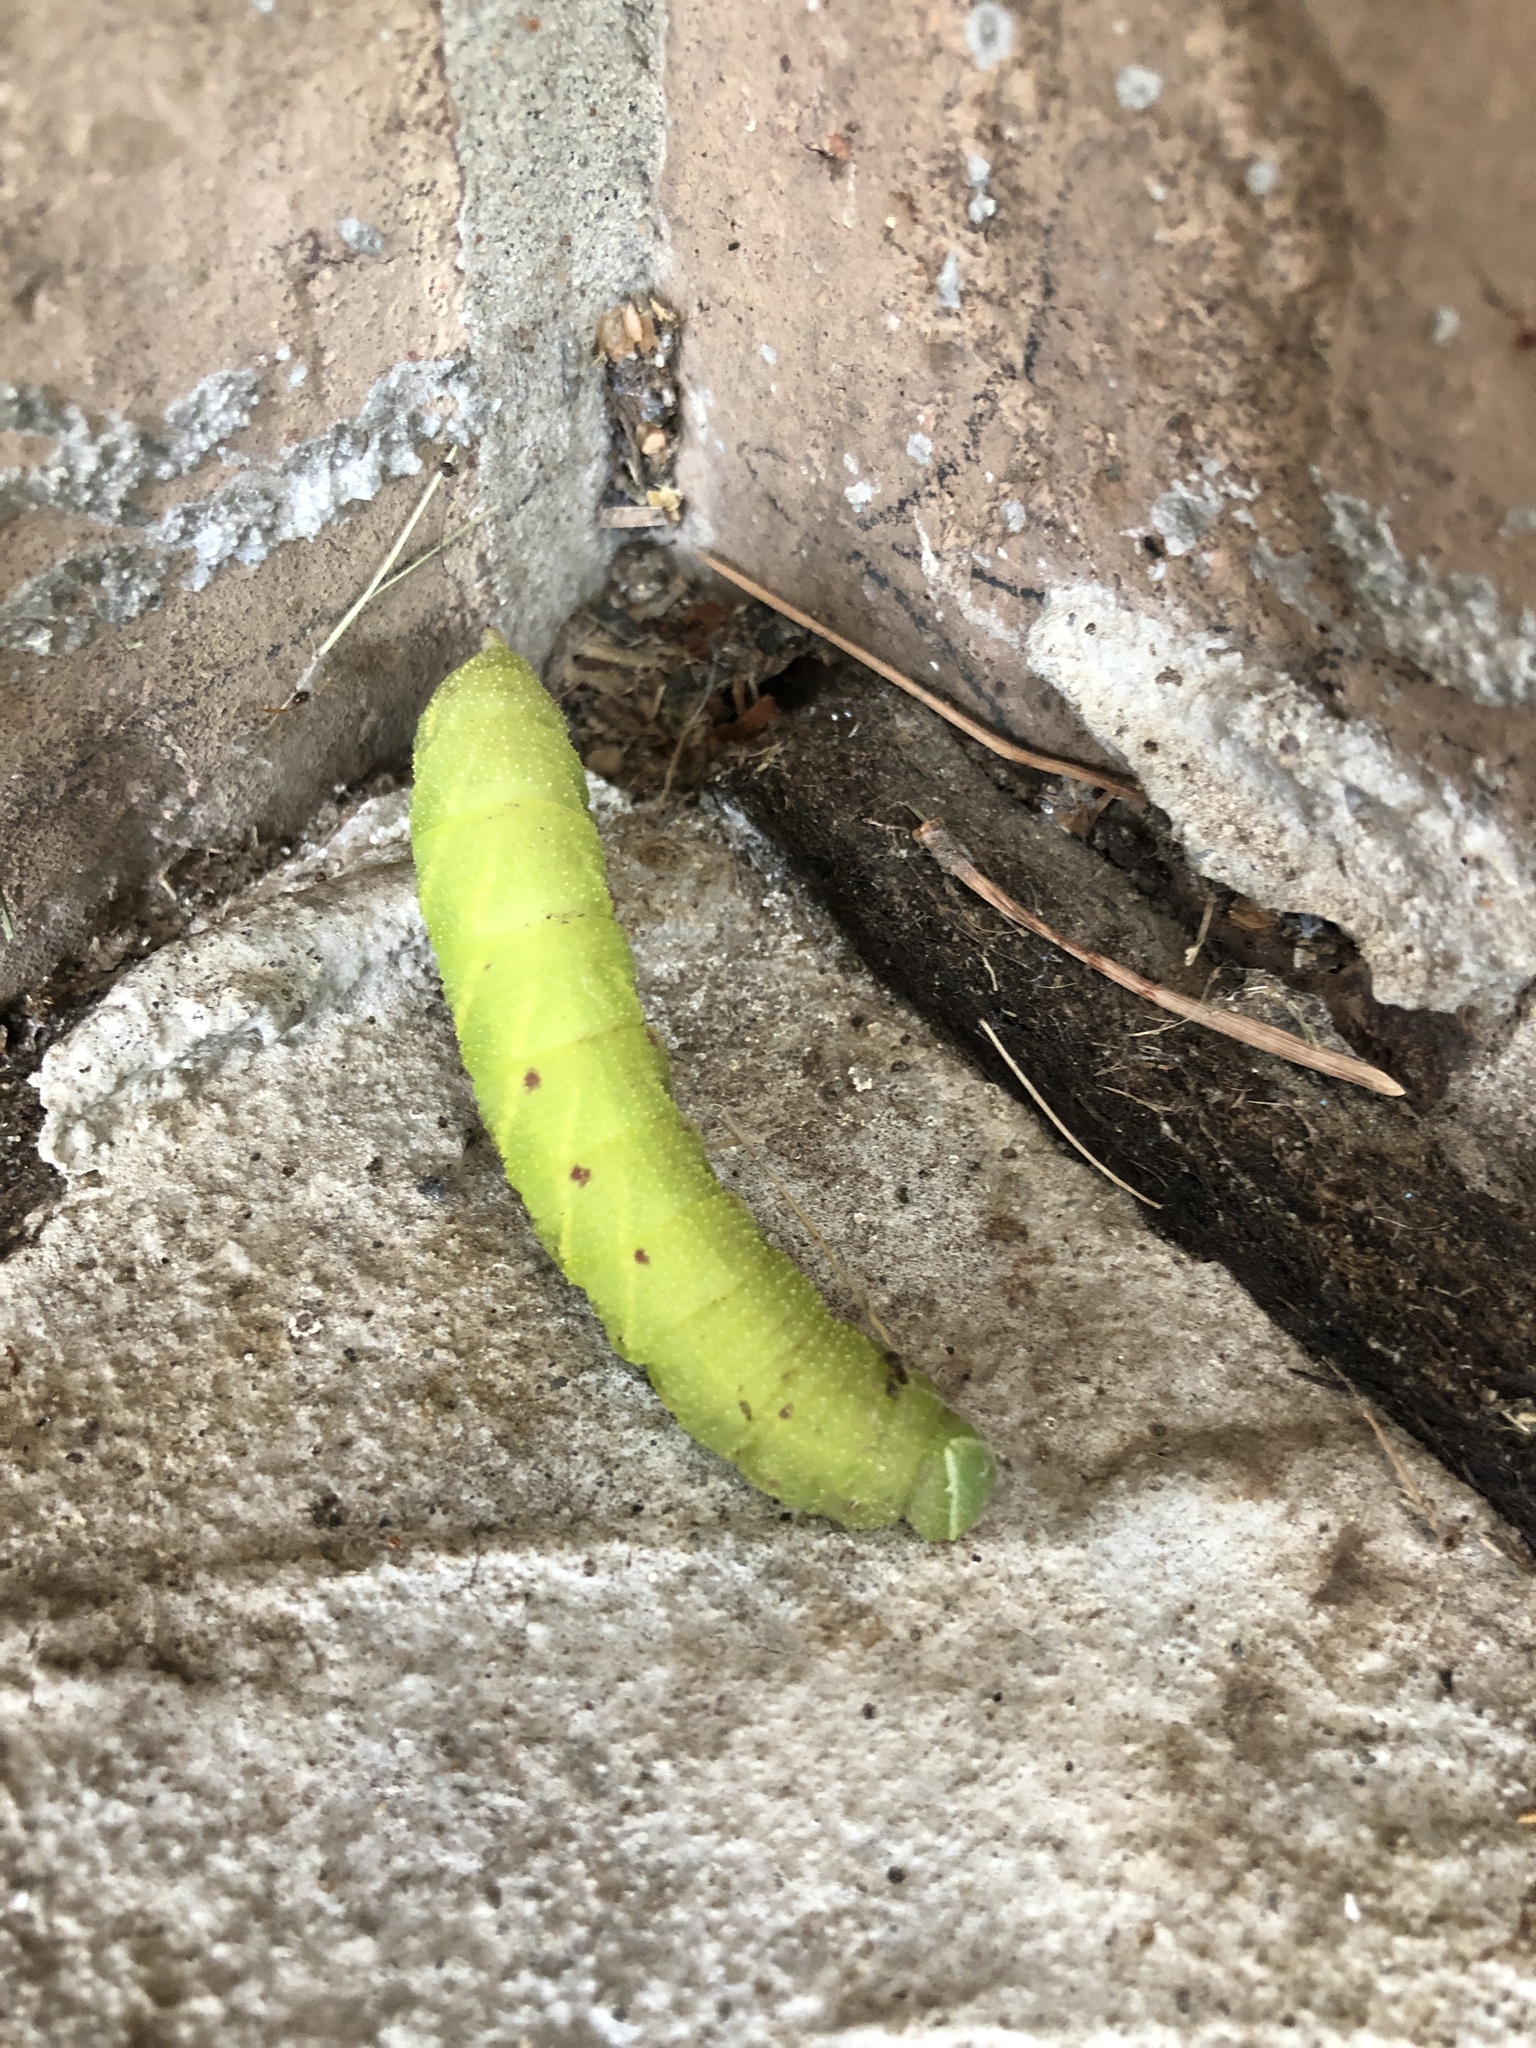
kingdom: Animalia
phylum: Arthropoda
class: Insecta
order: Lepidoptera
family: Sphingidae
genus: Paonias
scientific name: Paonias excaecata
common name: Blind-eyed sphinx
